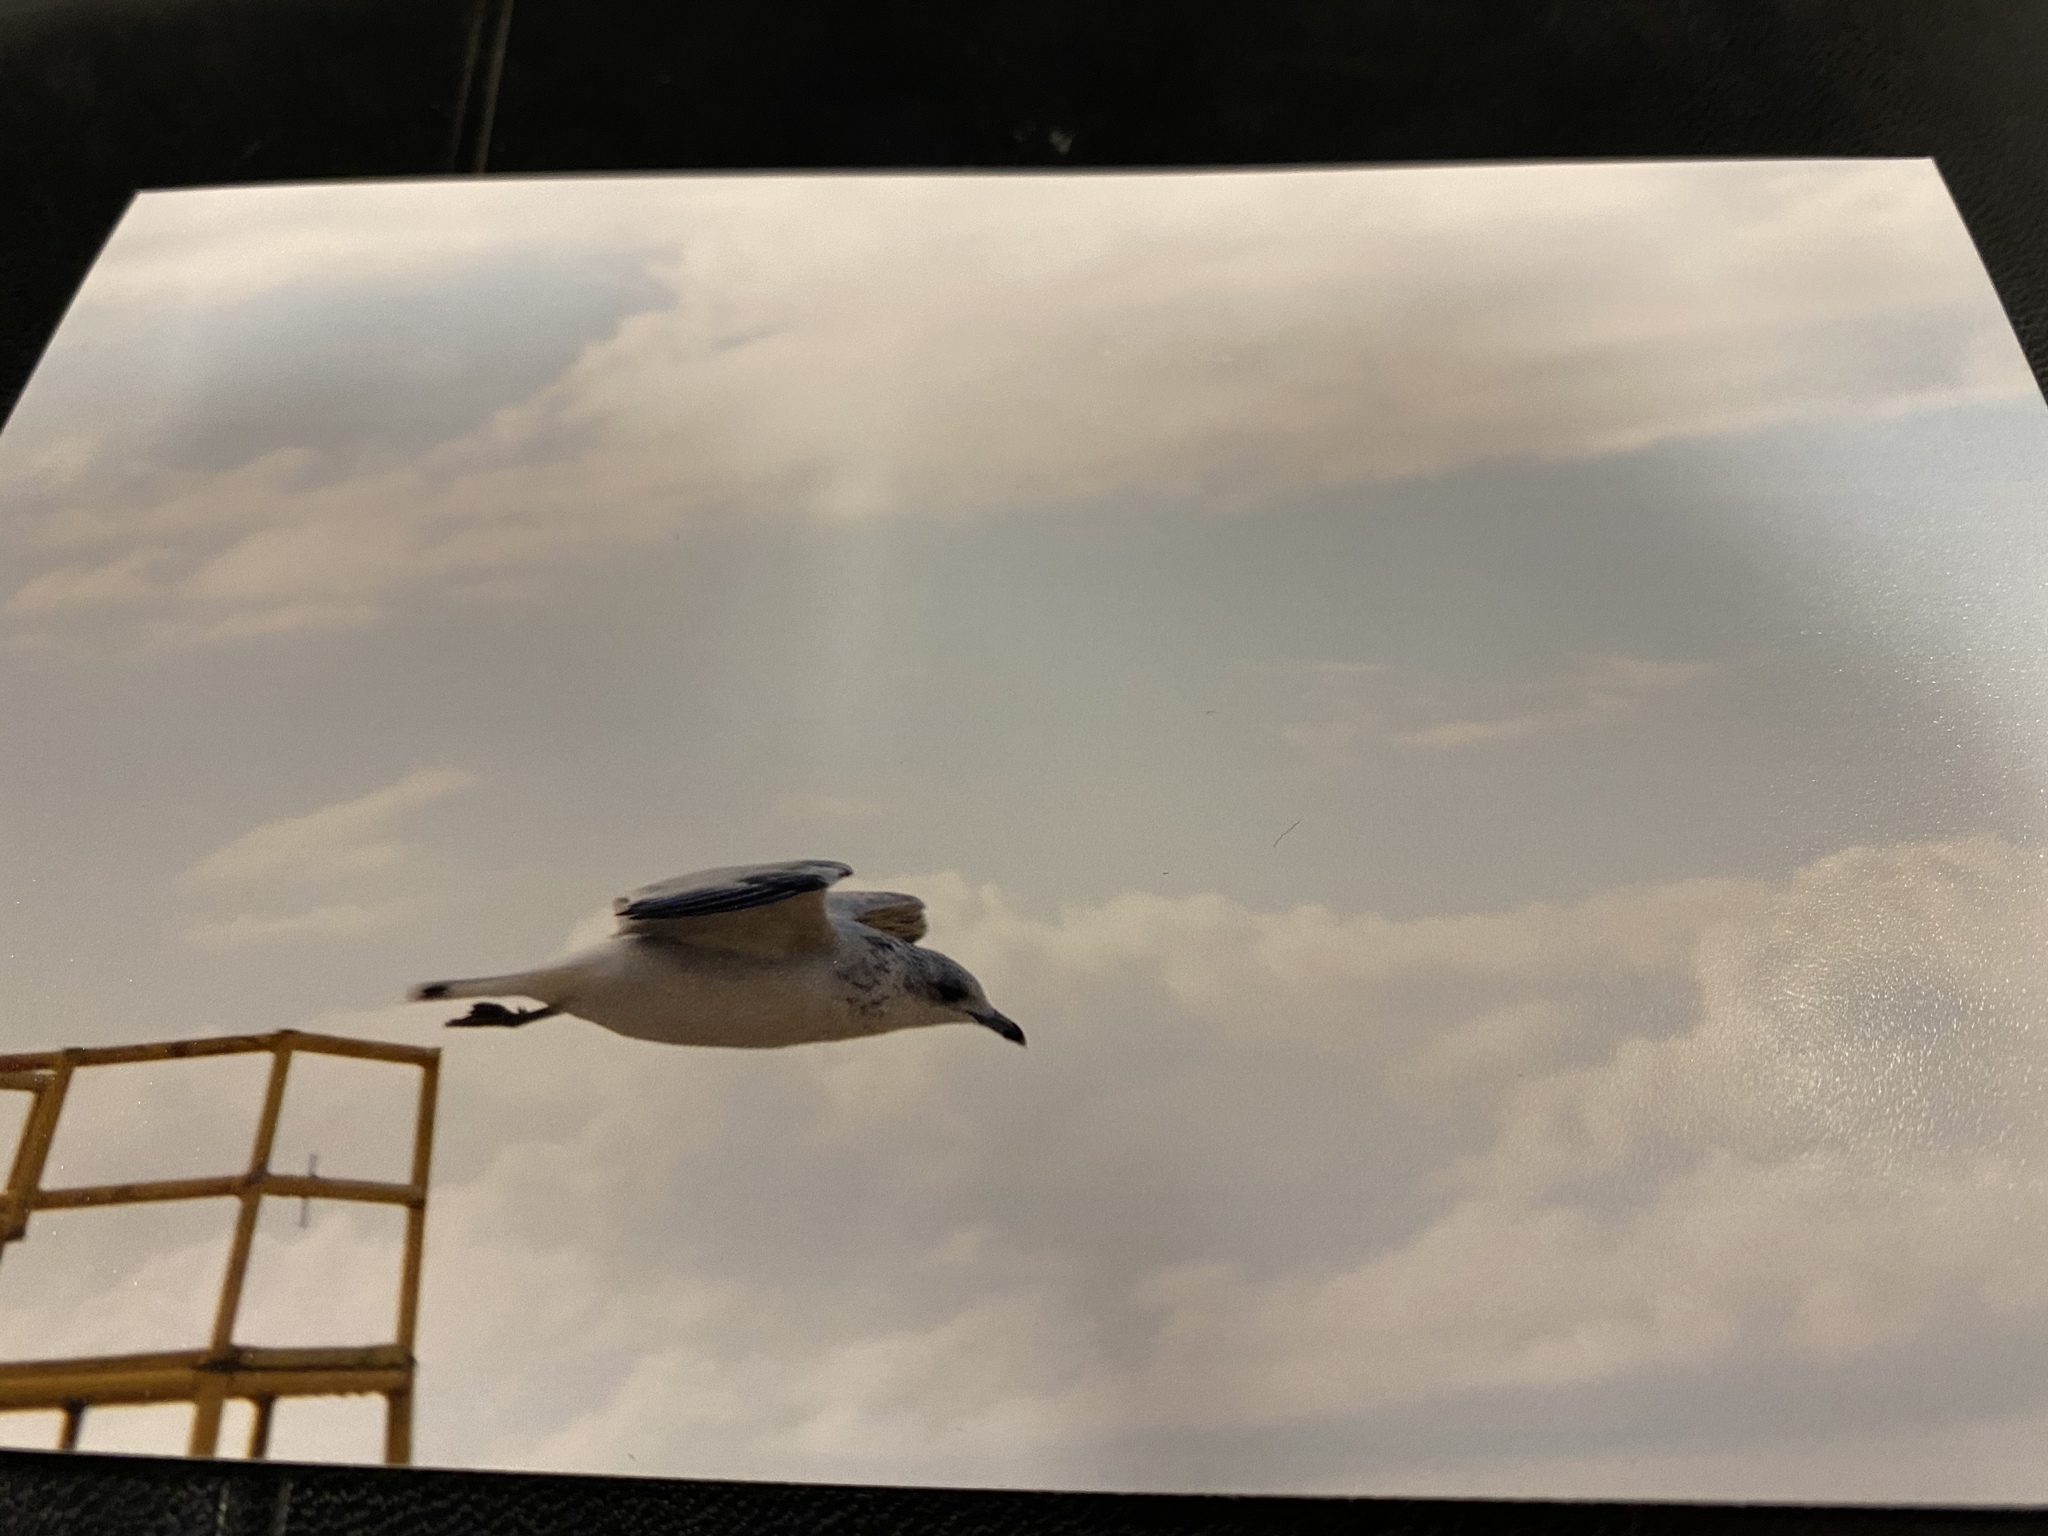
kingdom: Animalia
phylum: Chordata
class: Aves
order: Charadriiformes
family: Laridae
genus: Larus
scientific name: Larus delawarensis
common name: Ring-billed gull
